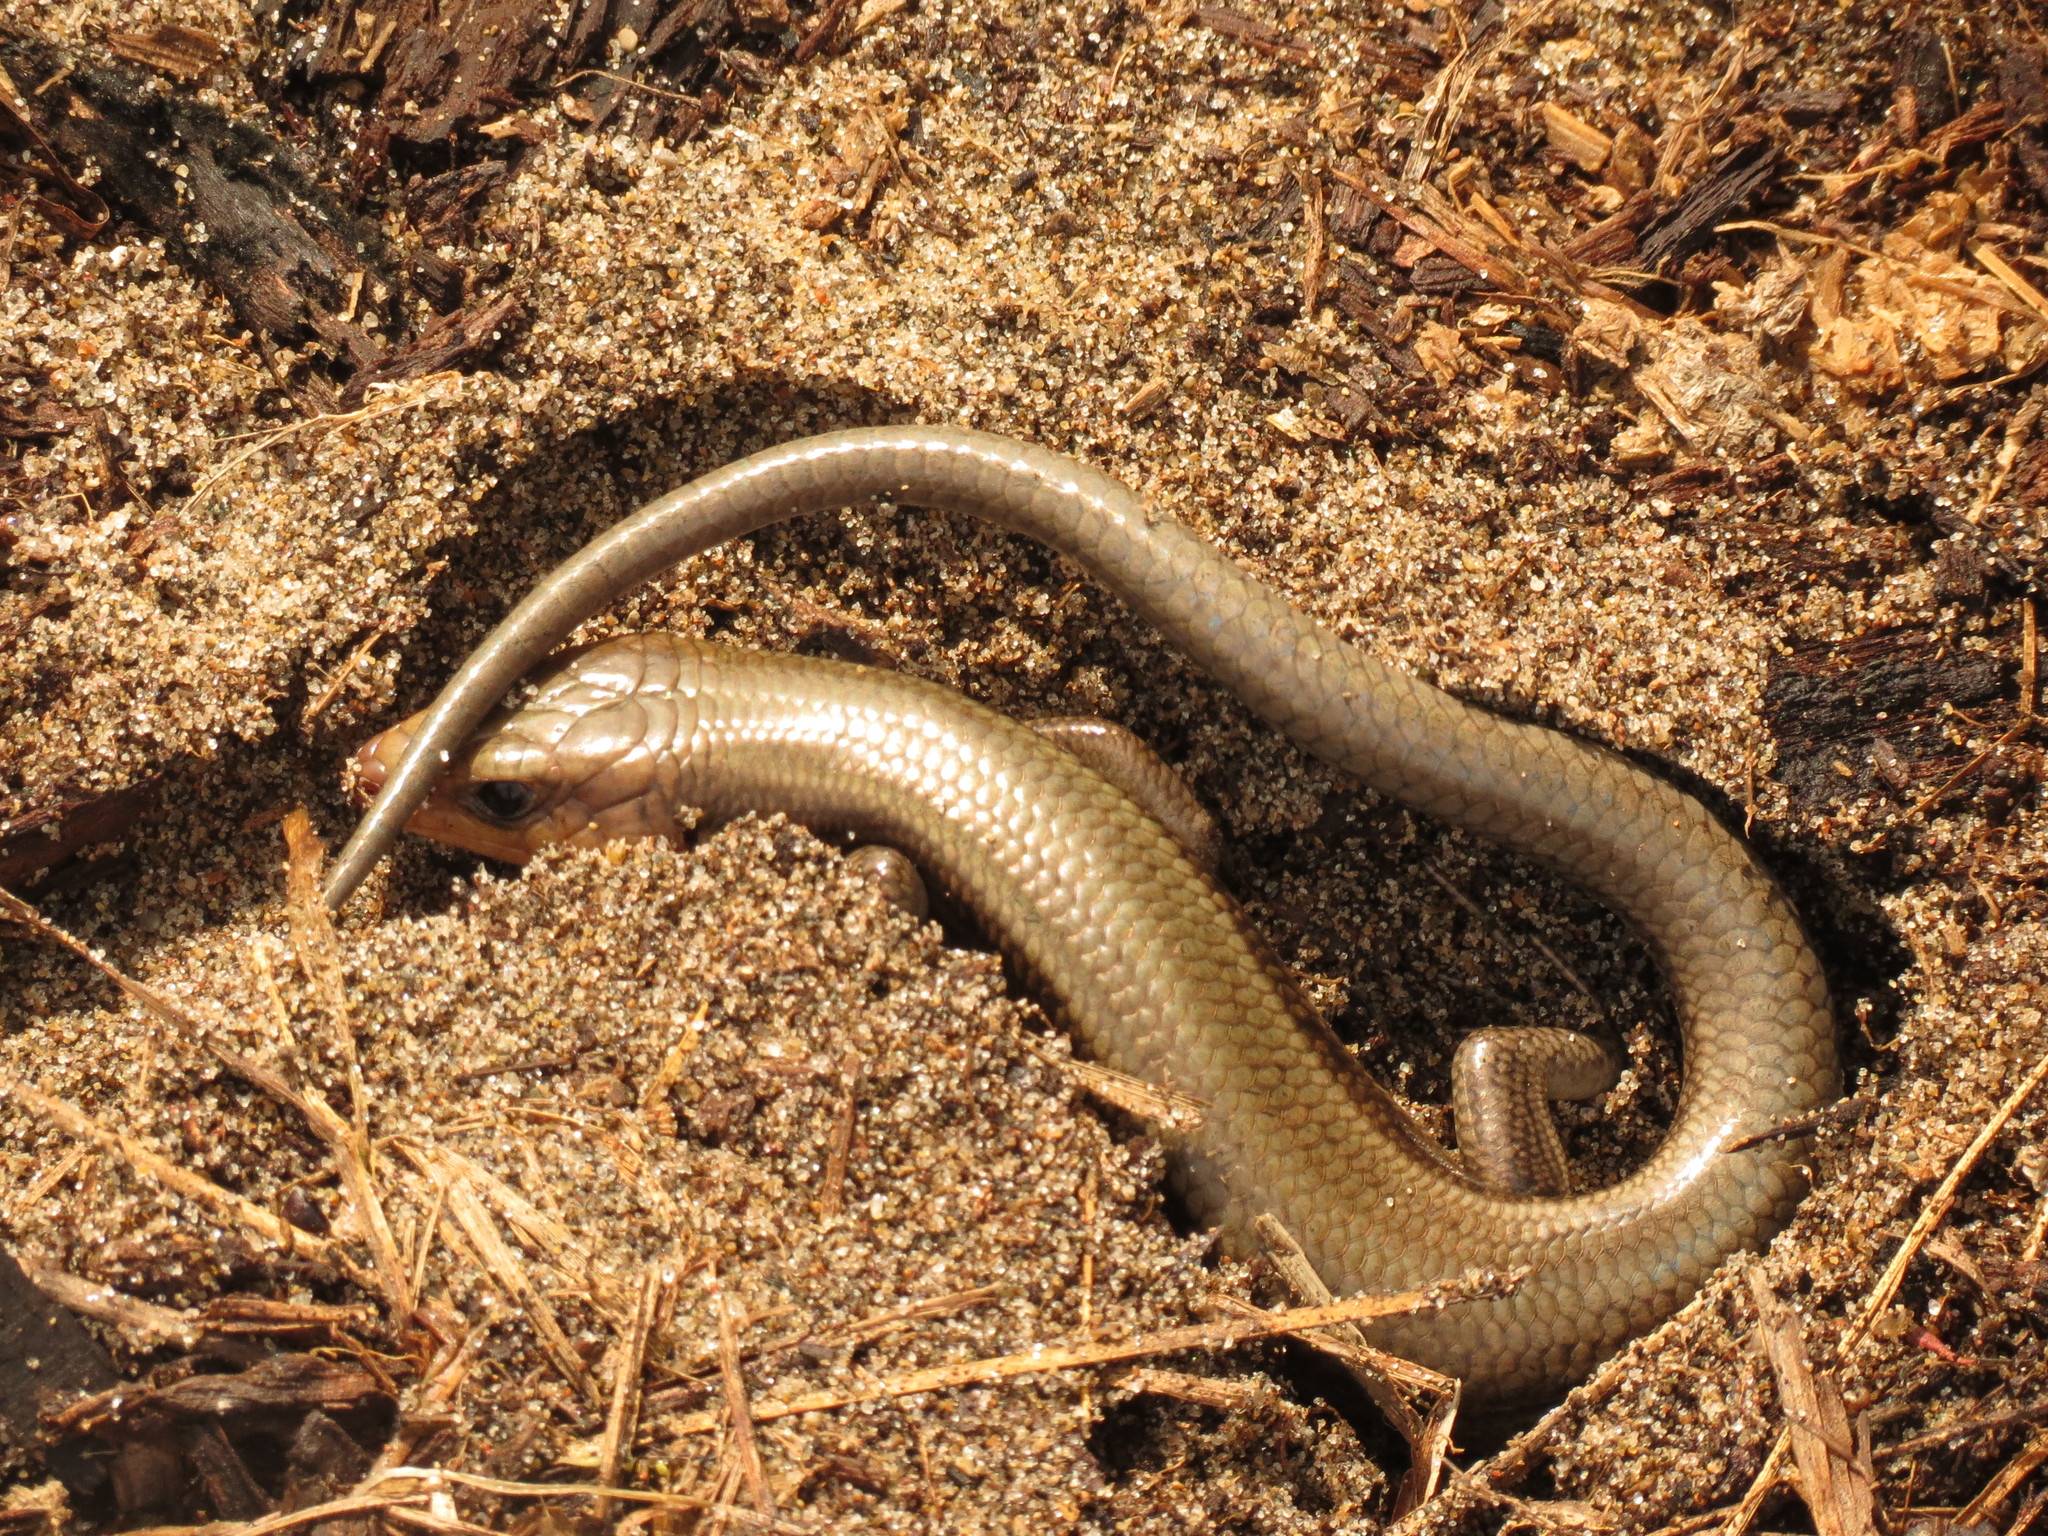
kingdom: Animalia
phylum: Chordata
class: Squamata
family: Scincidae
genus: Plestiodon
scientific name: Plestiodon fasciatus
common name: Five-lined skink
